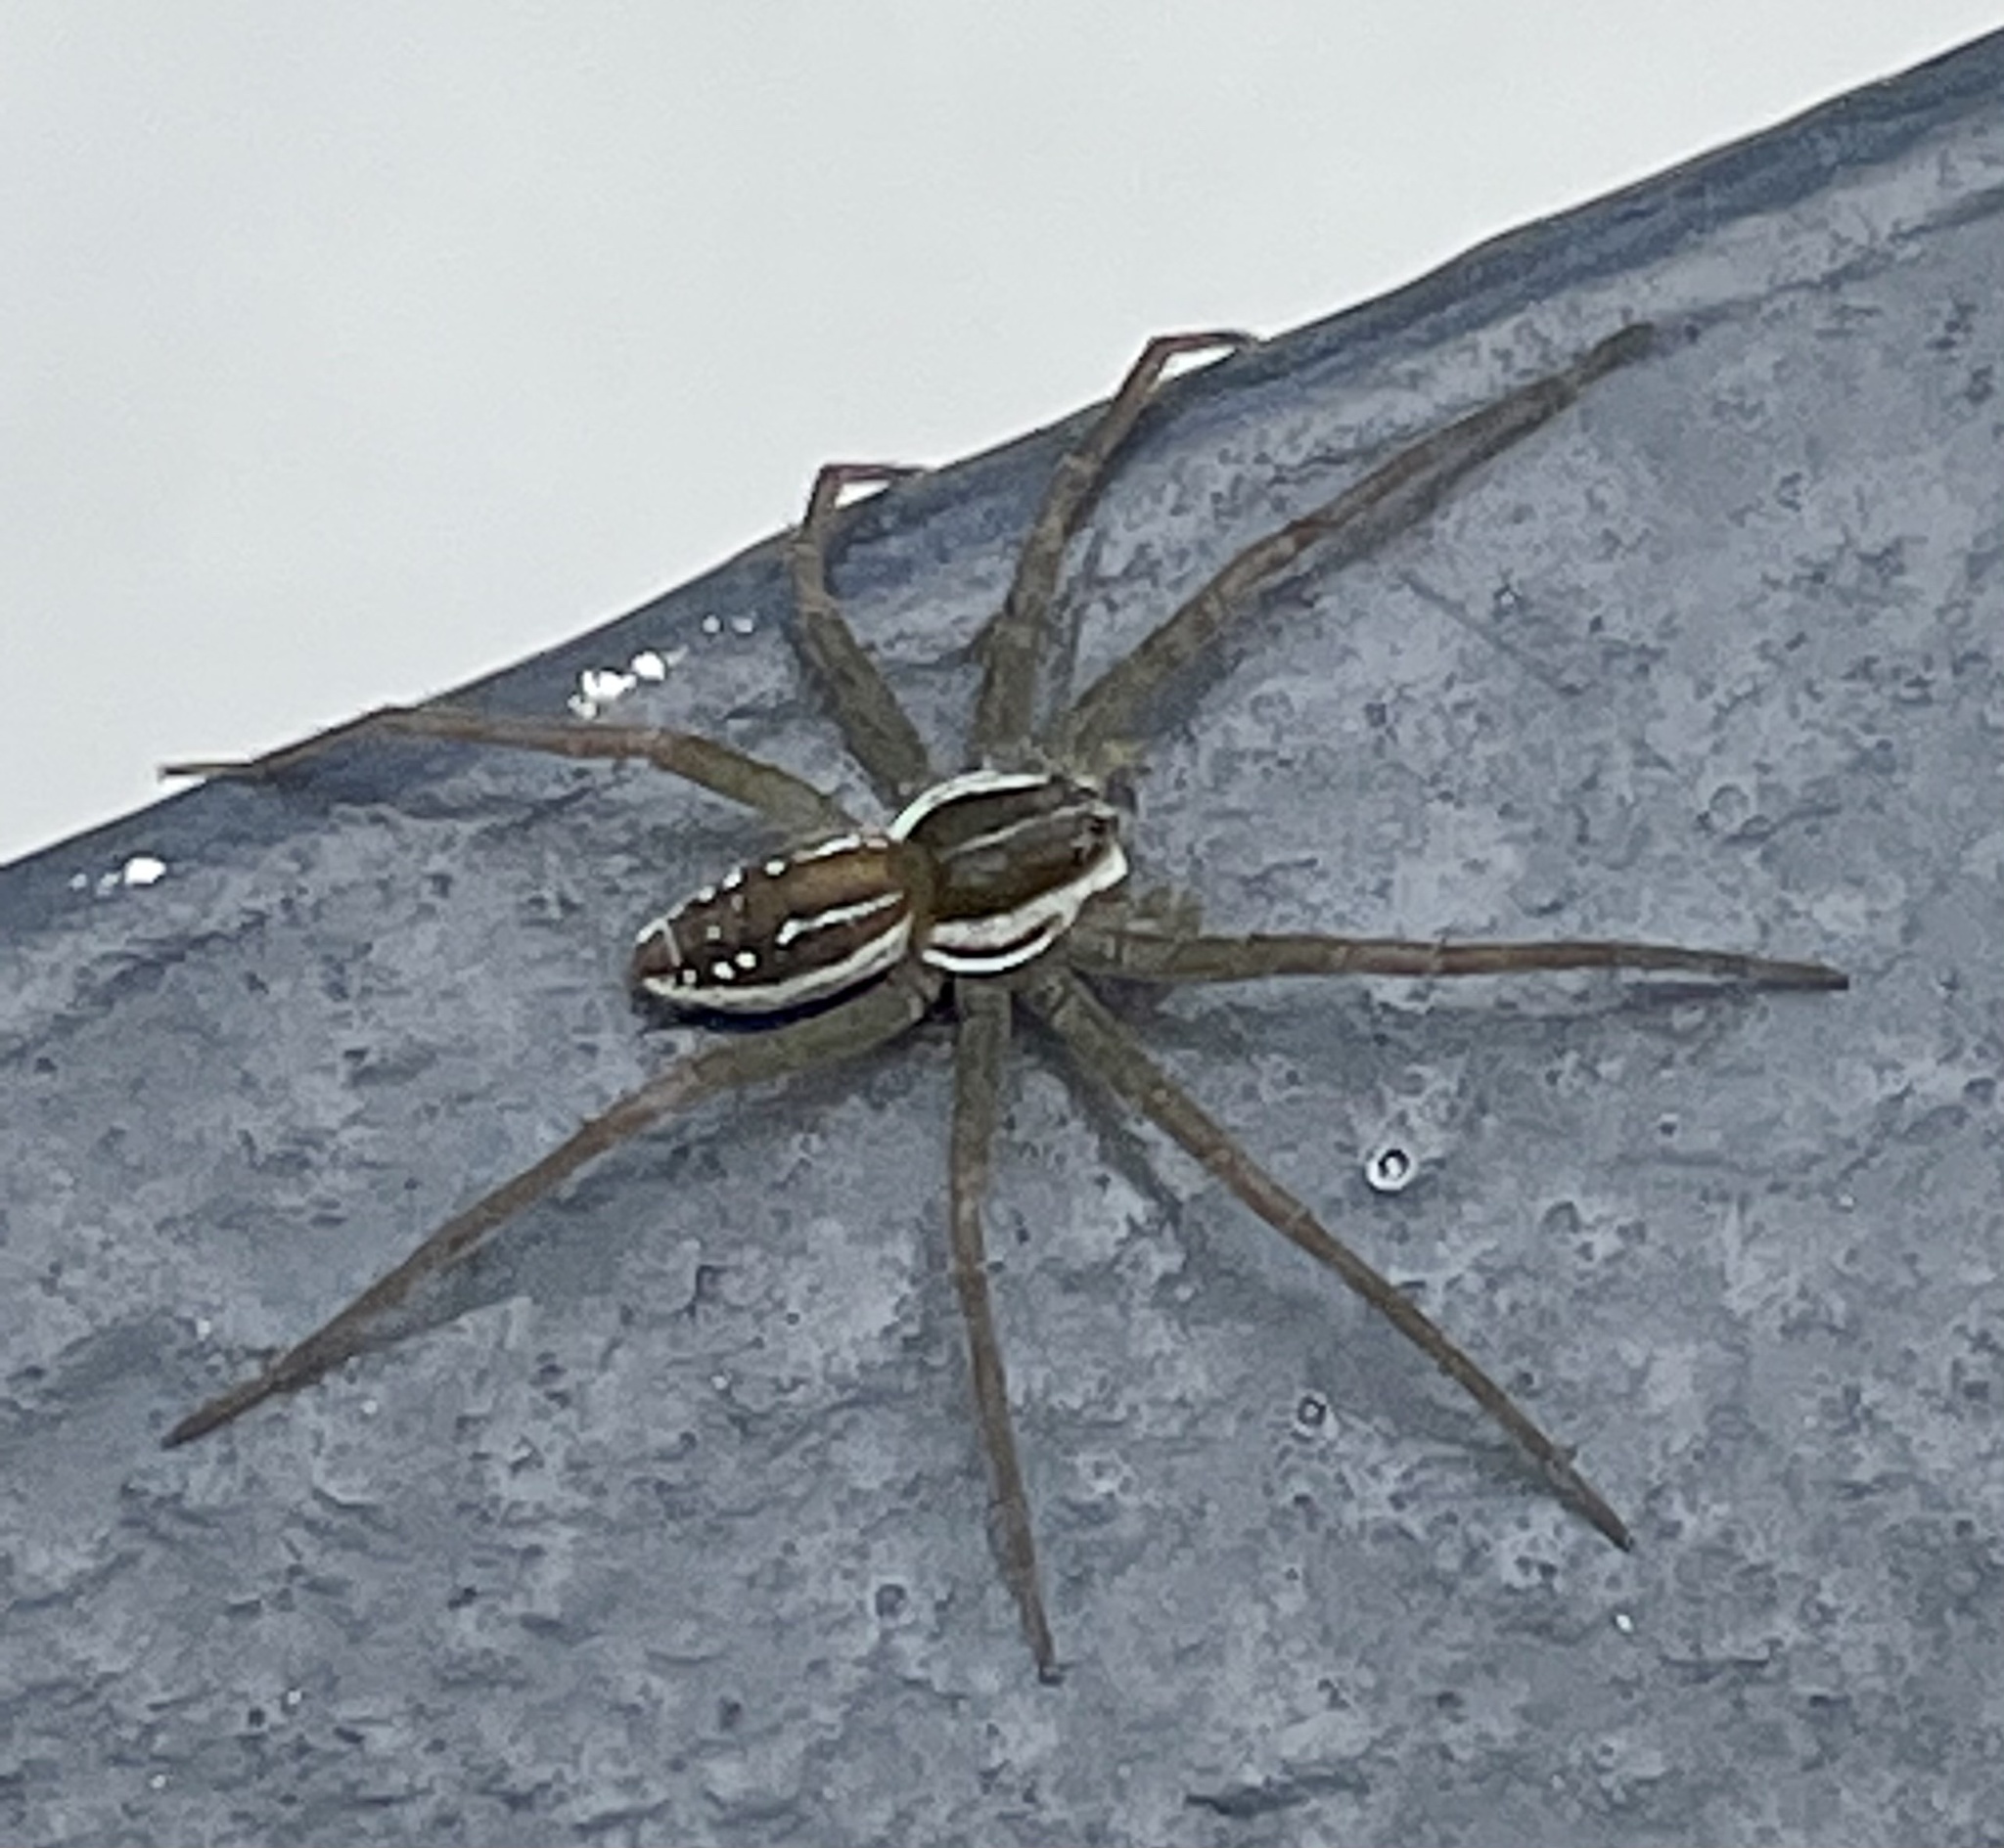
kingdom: Animalia
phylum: Arthropoda
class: Arachnida
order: Araneae
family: Pisauridae
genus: Dolomedes
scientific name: Dolomedes facetus
